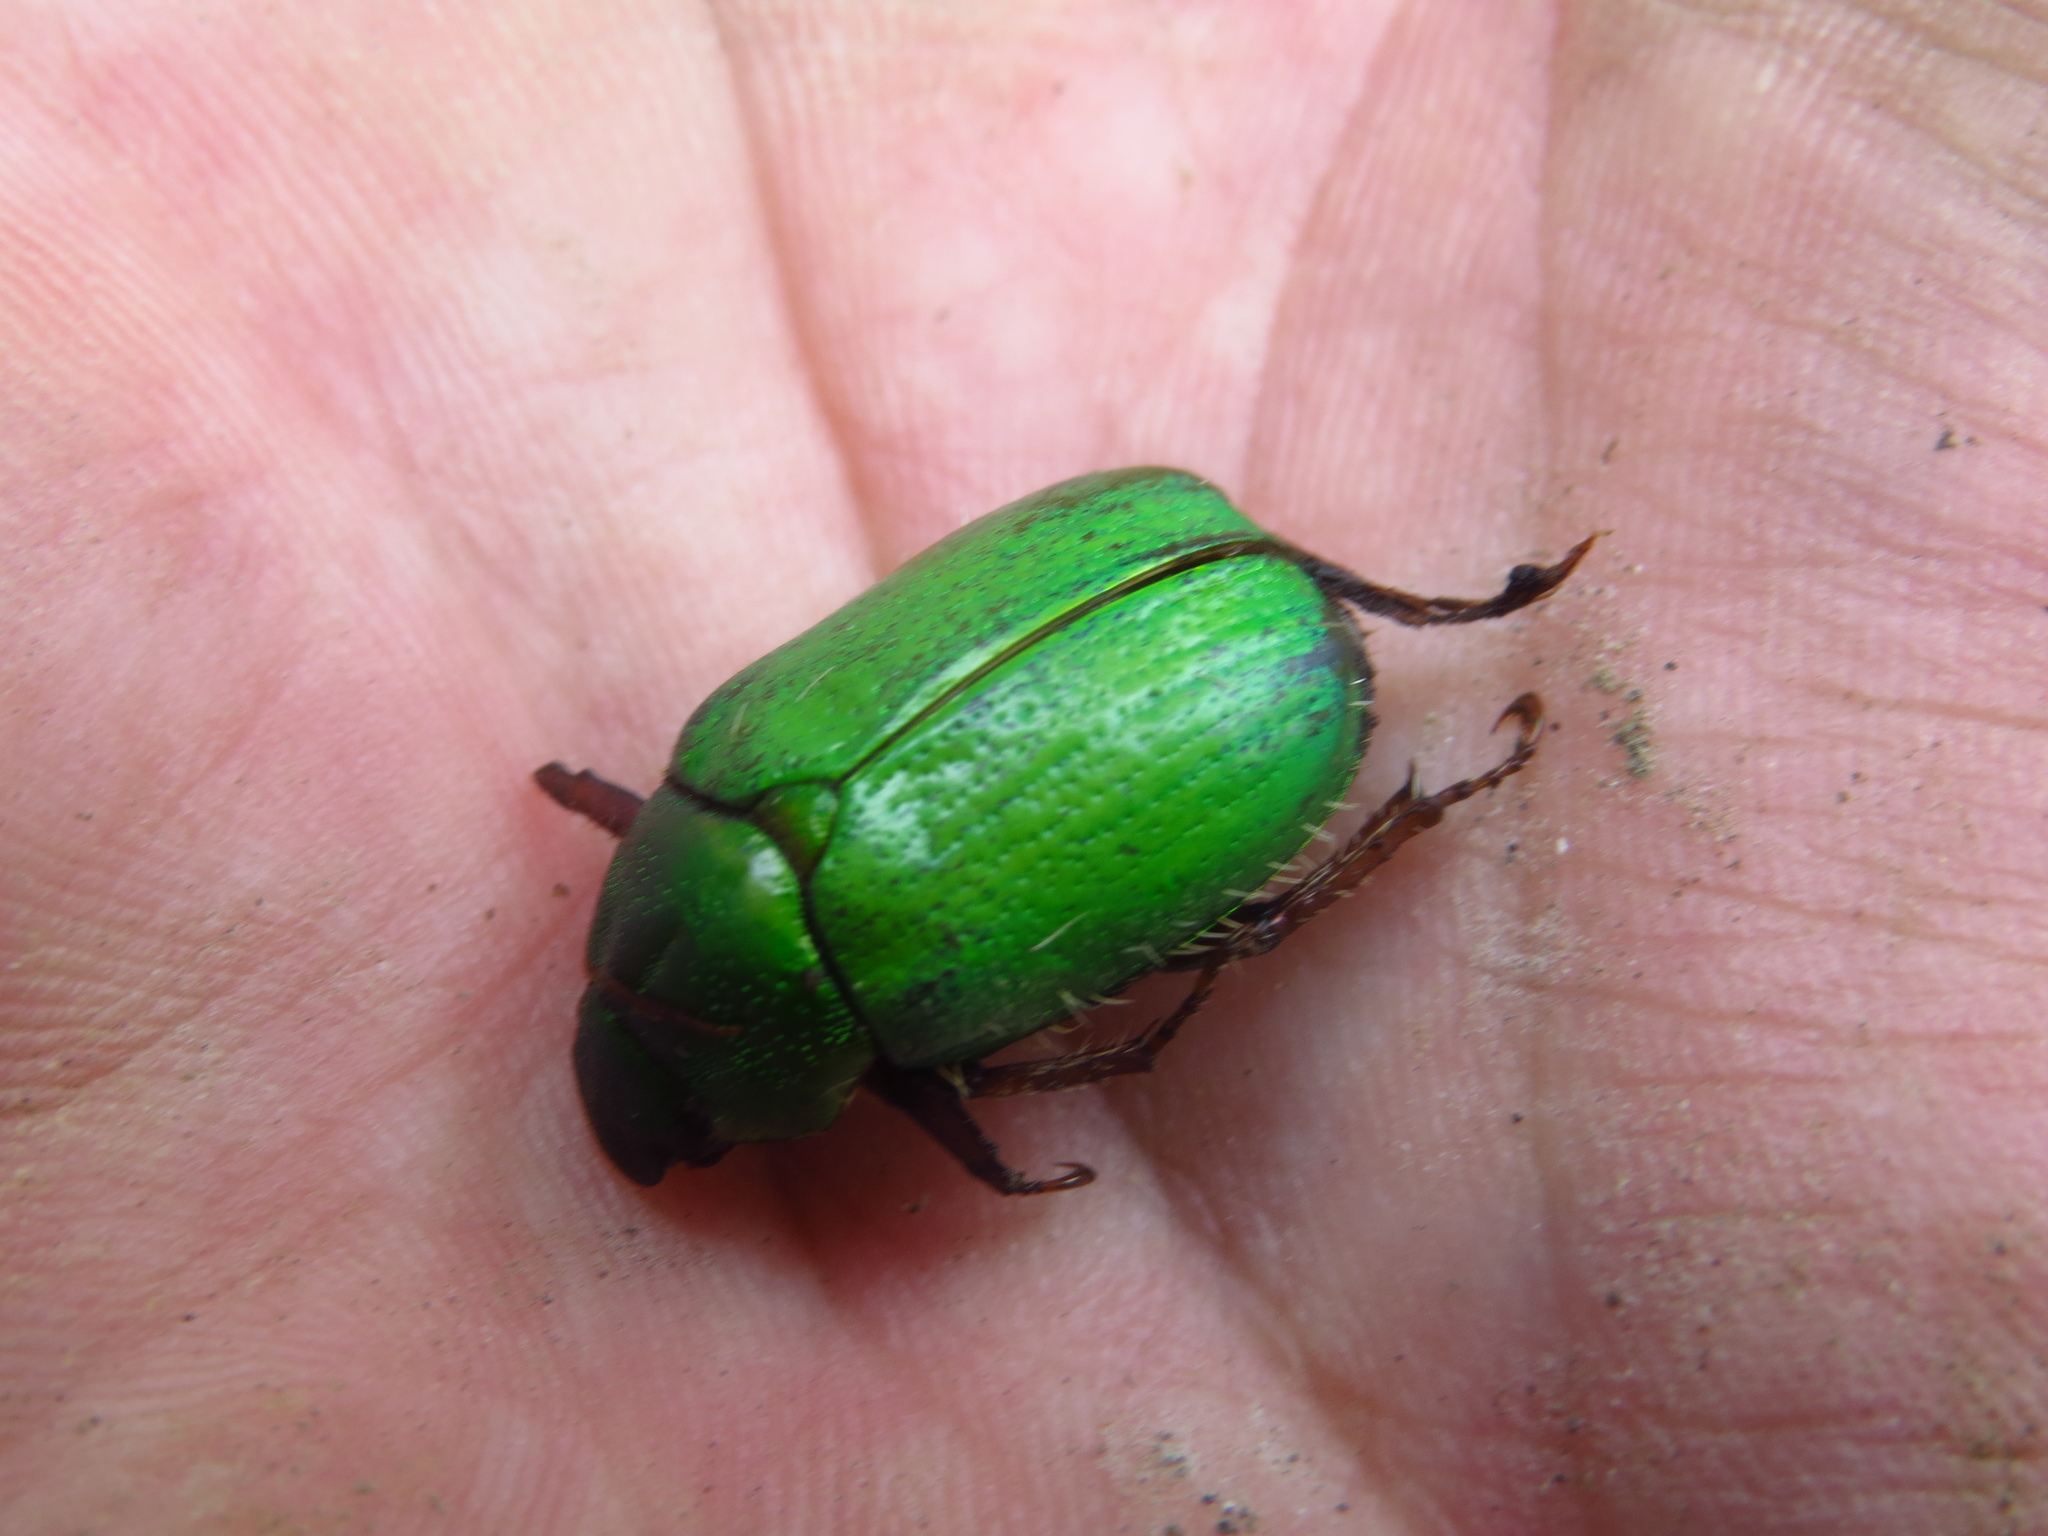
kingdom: Animalia
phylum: Arthropoda
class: Insecta
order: Coleoptera
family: Scarabaeidae
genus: Brachysternus
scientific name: Brachysternus prasinus
